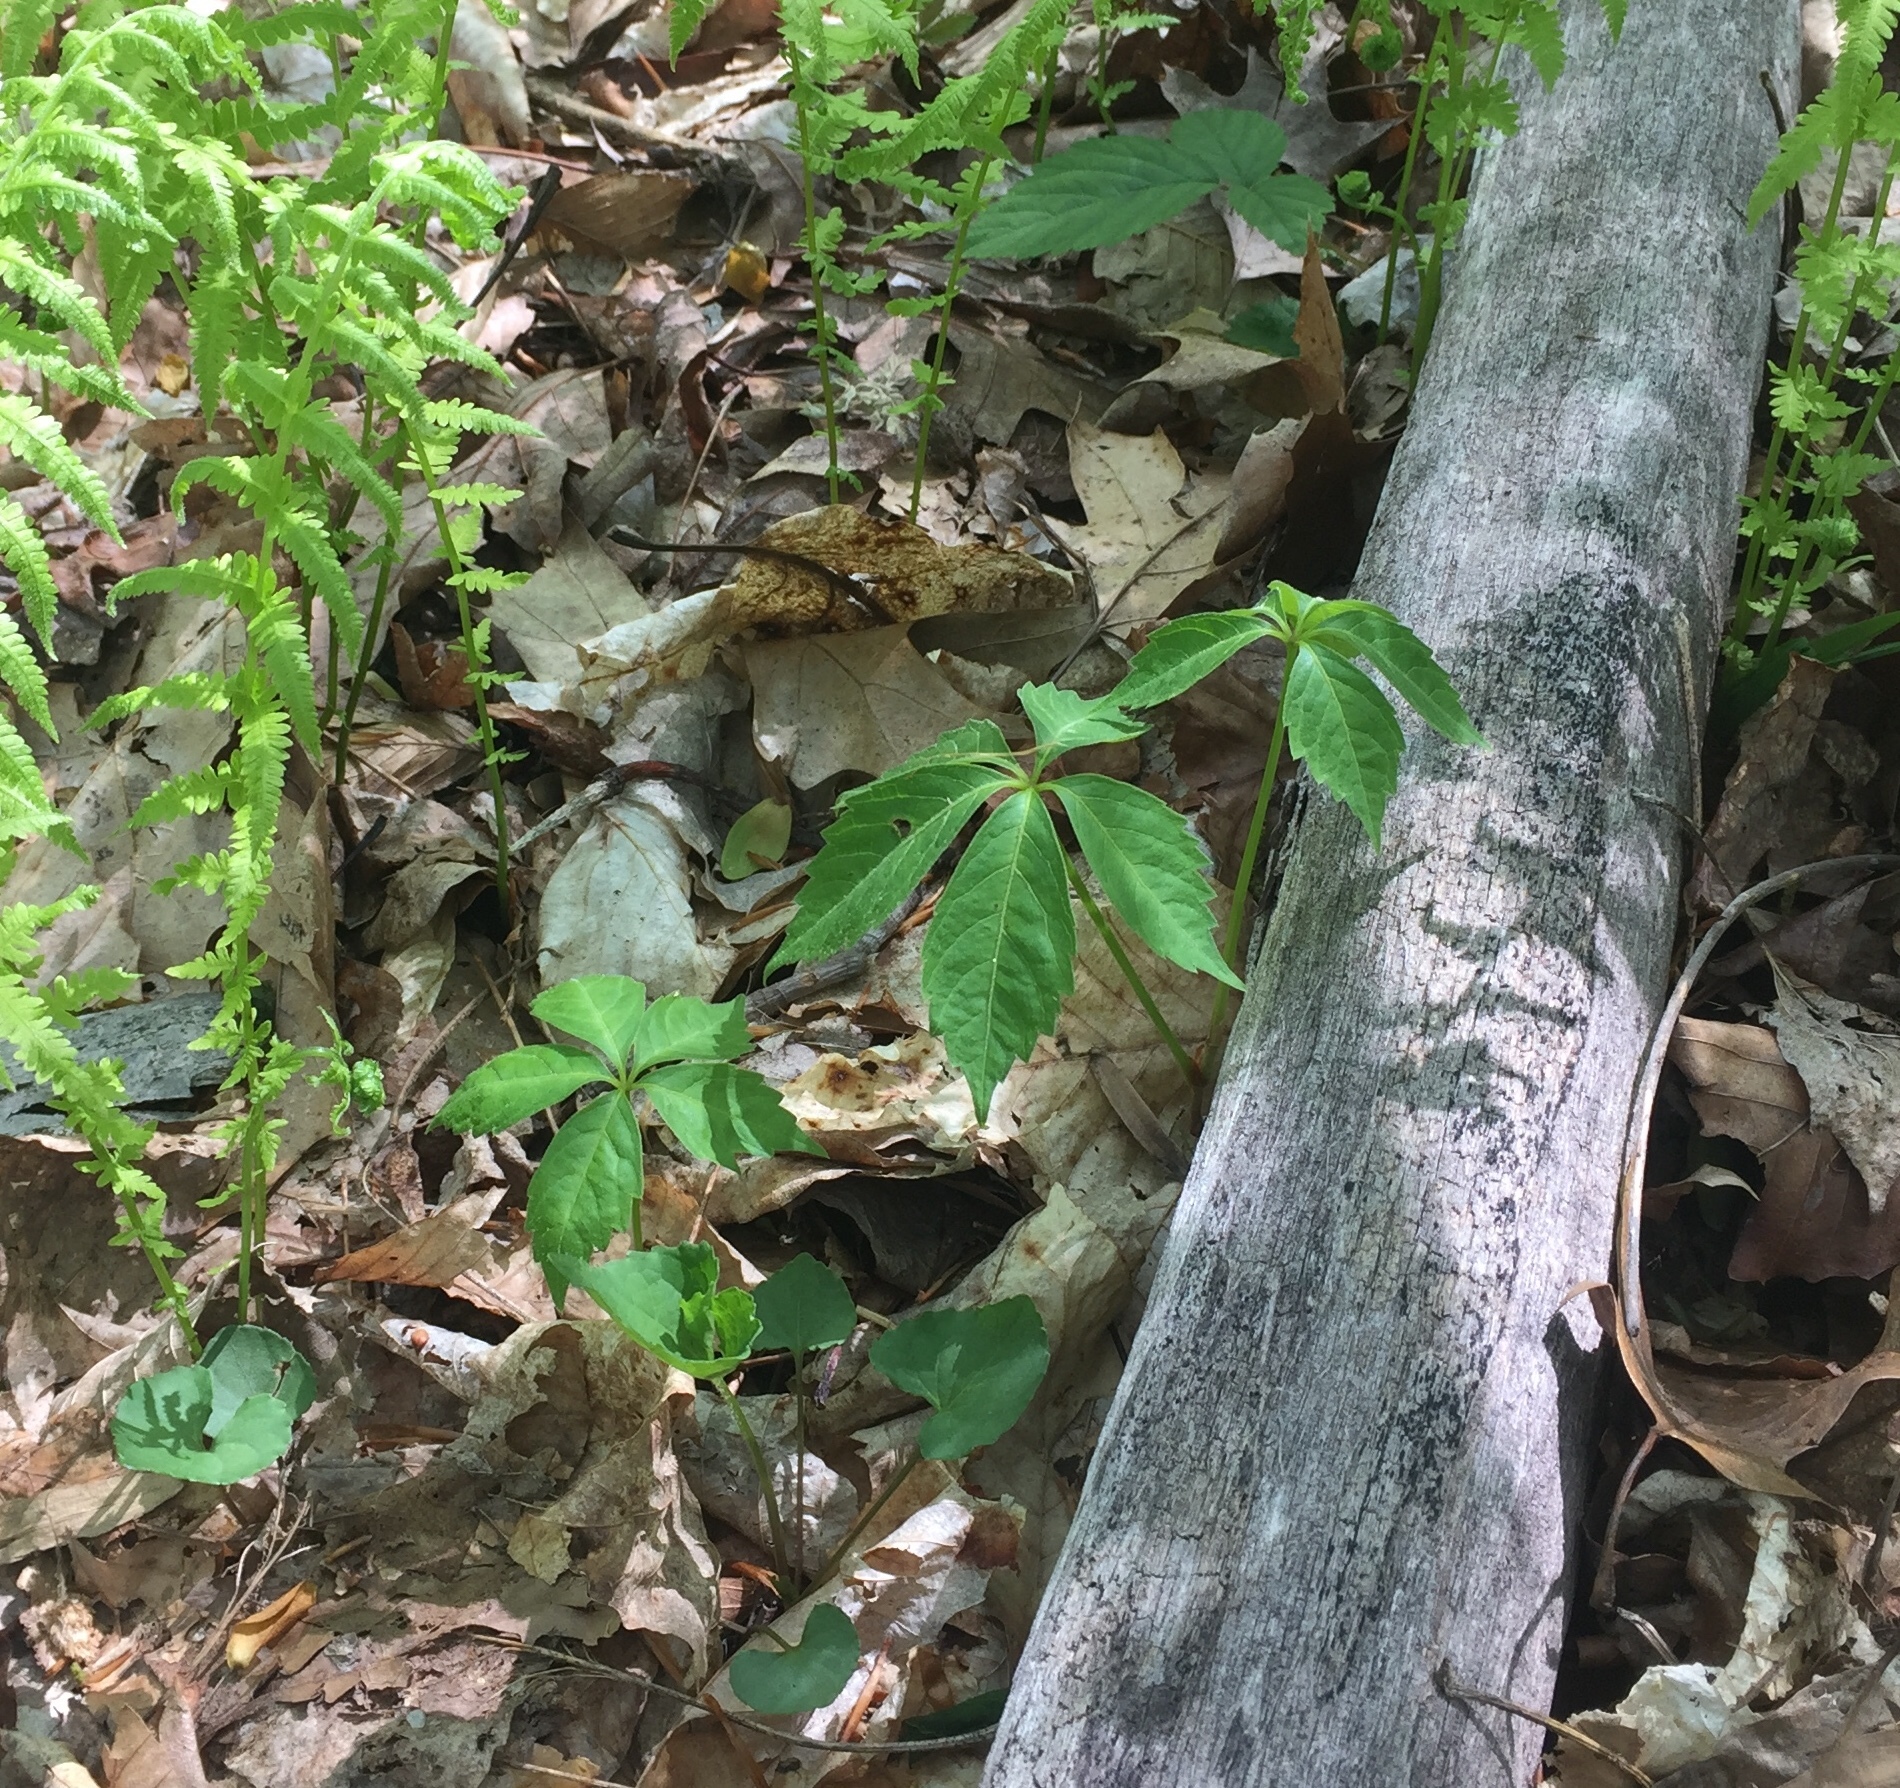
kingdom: Plantae
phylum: Tracheophyta
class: Magnoliopsida
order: Vitales
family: Vitaceae
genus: Parthenocissus
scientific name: Parthenocissus quinquefolia
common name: Virginia-creeper
